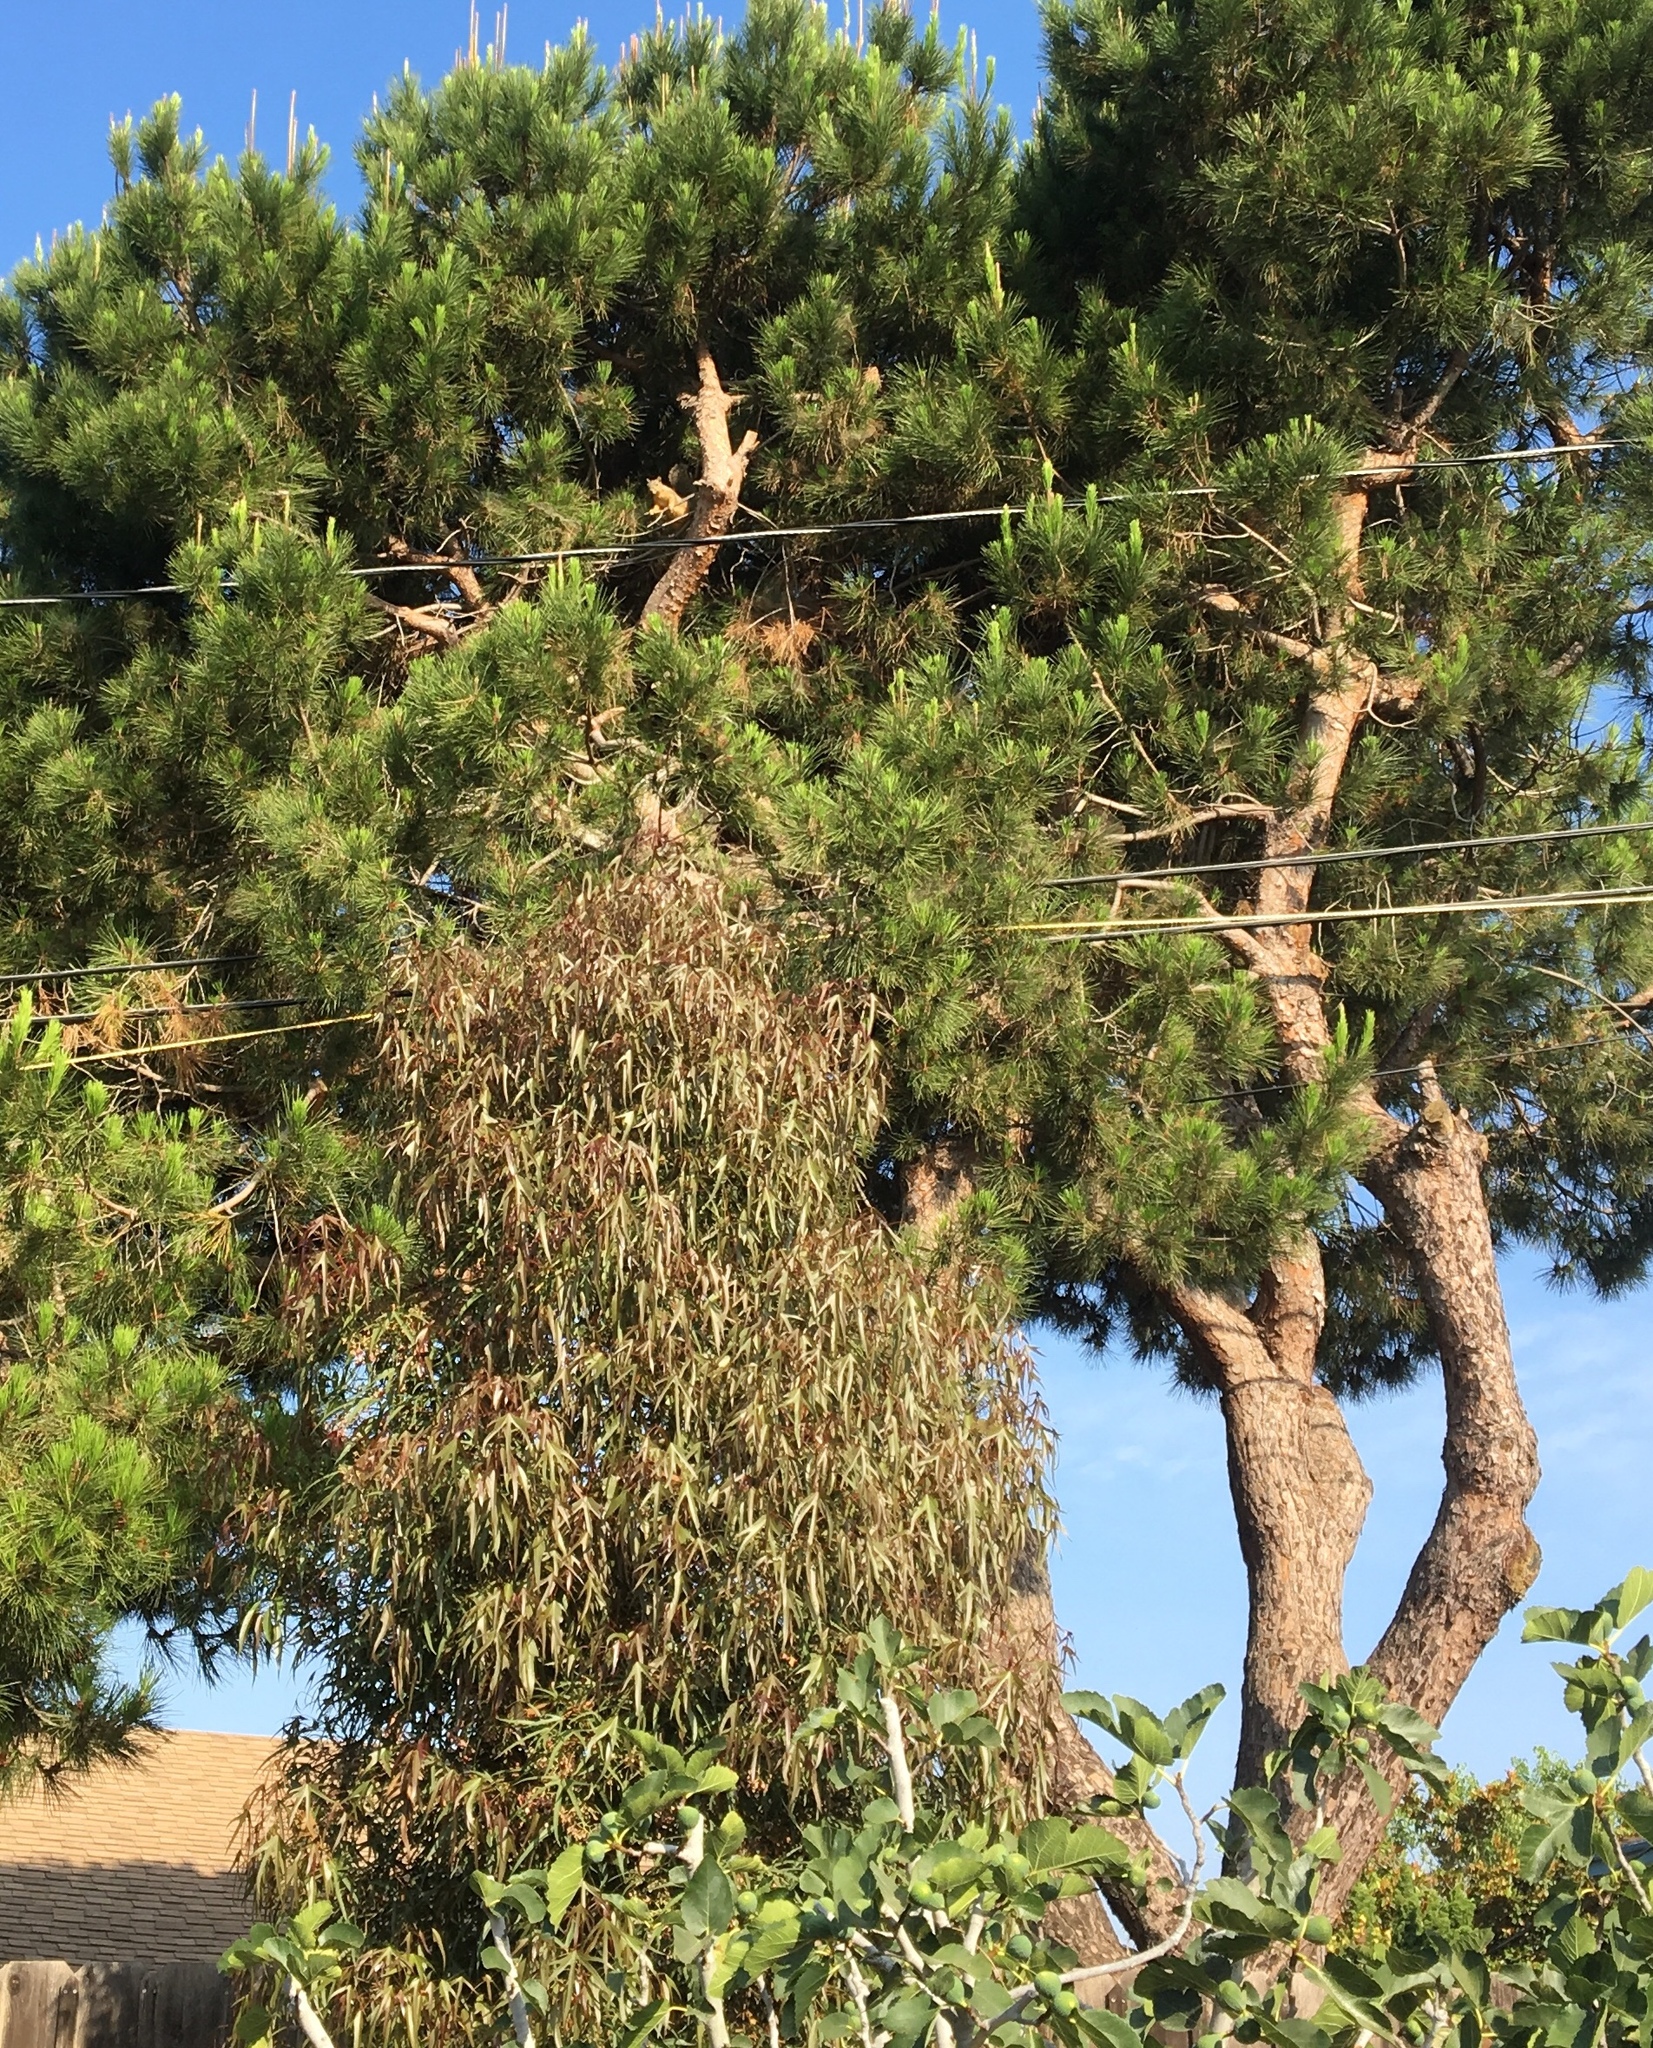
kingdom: Animalia
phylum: Chordata
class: Mammalia
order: Rodentia
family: Sciuridae
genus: Sciurus
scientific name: Sciurus niger
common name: Fox squirrel
